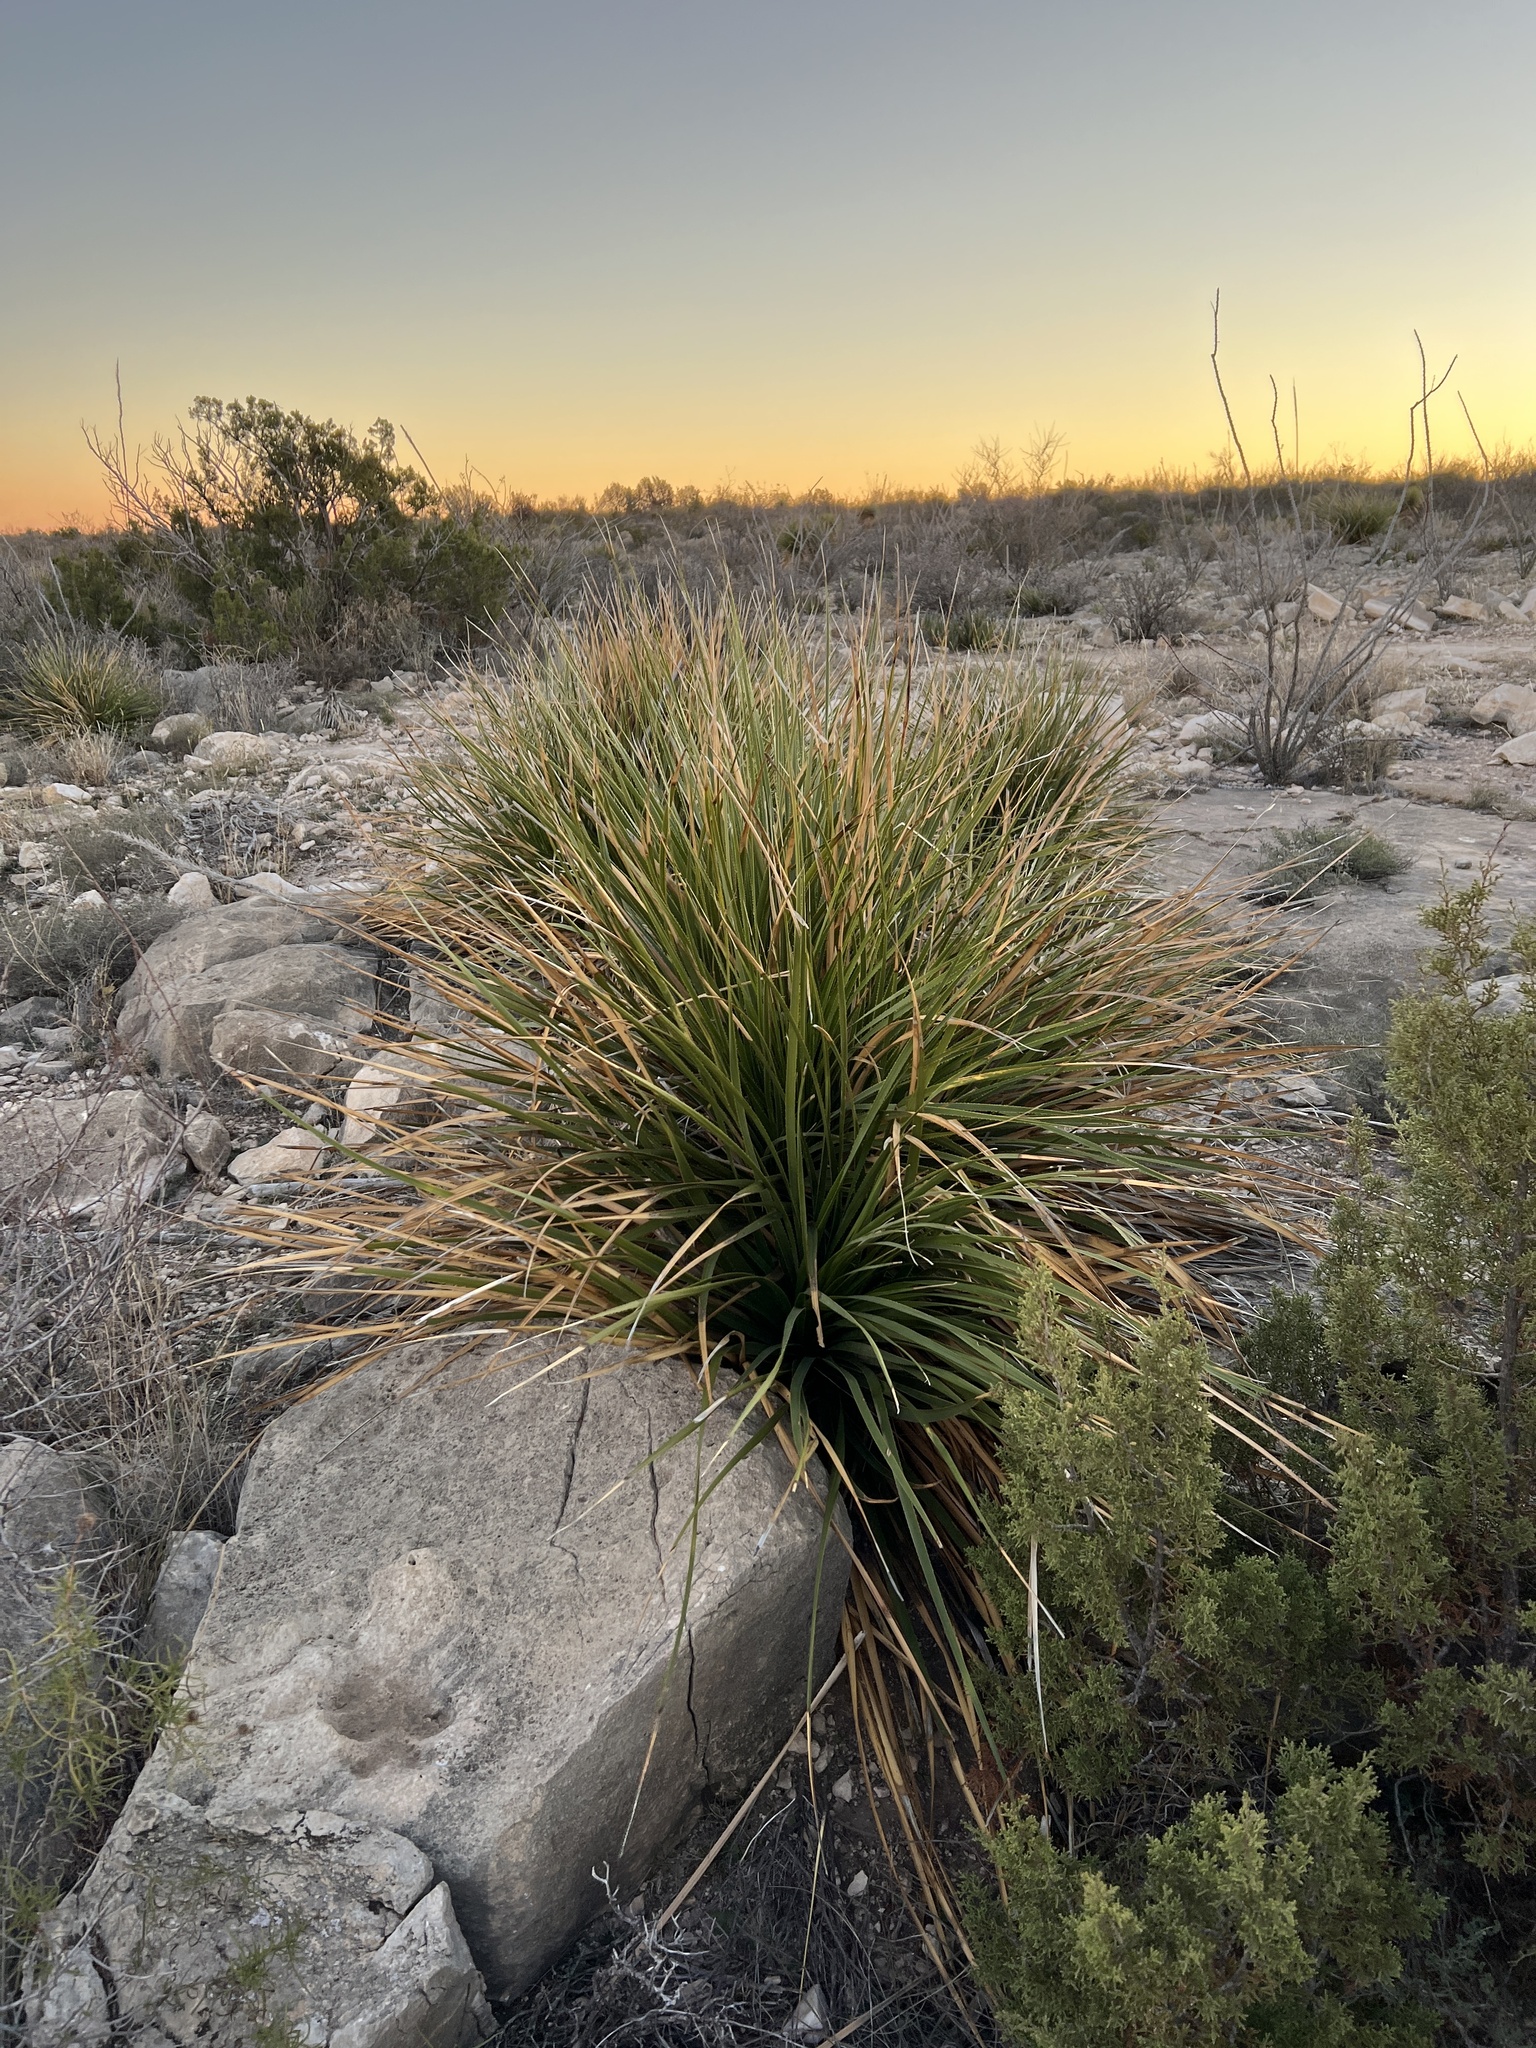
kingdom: Plantae
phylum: Tracheophyta
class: Liliopsida
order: Asparagales
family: Asparagaceae
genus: Dasylirion
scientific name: Dasylirion texanum
